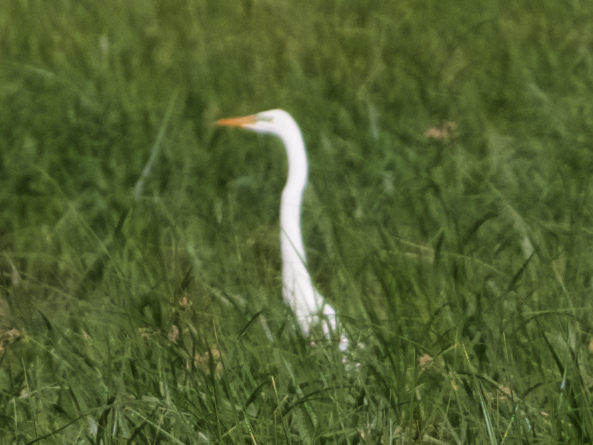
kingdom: Animalia
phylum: Chordata
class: Aves
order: Pelecaniformes
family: Ardeidae
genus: Ardea
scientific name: Ardea alba
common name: Great egret
